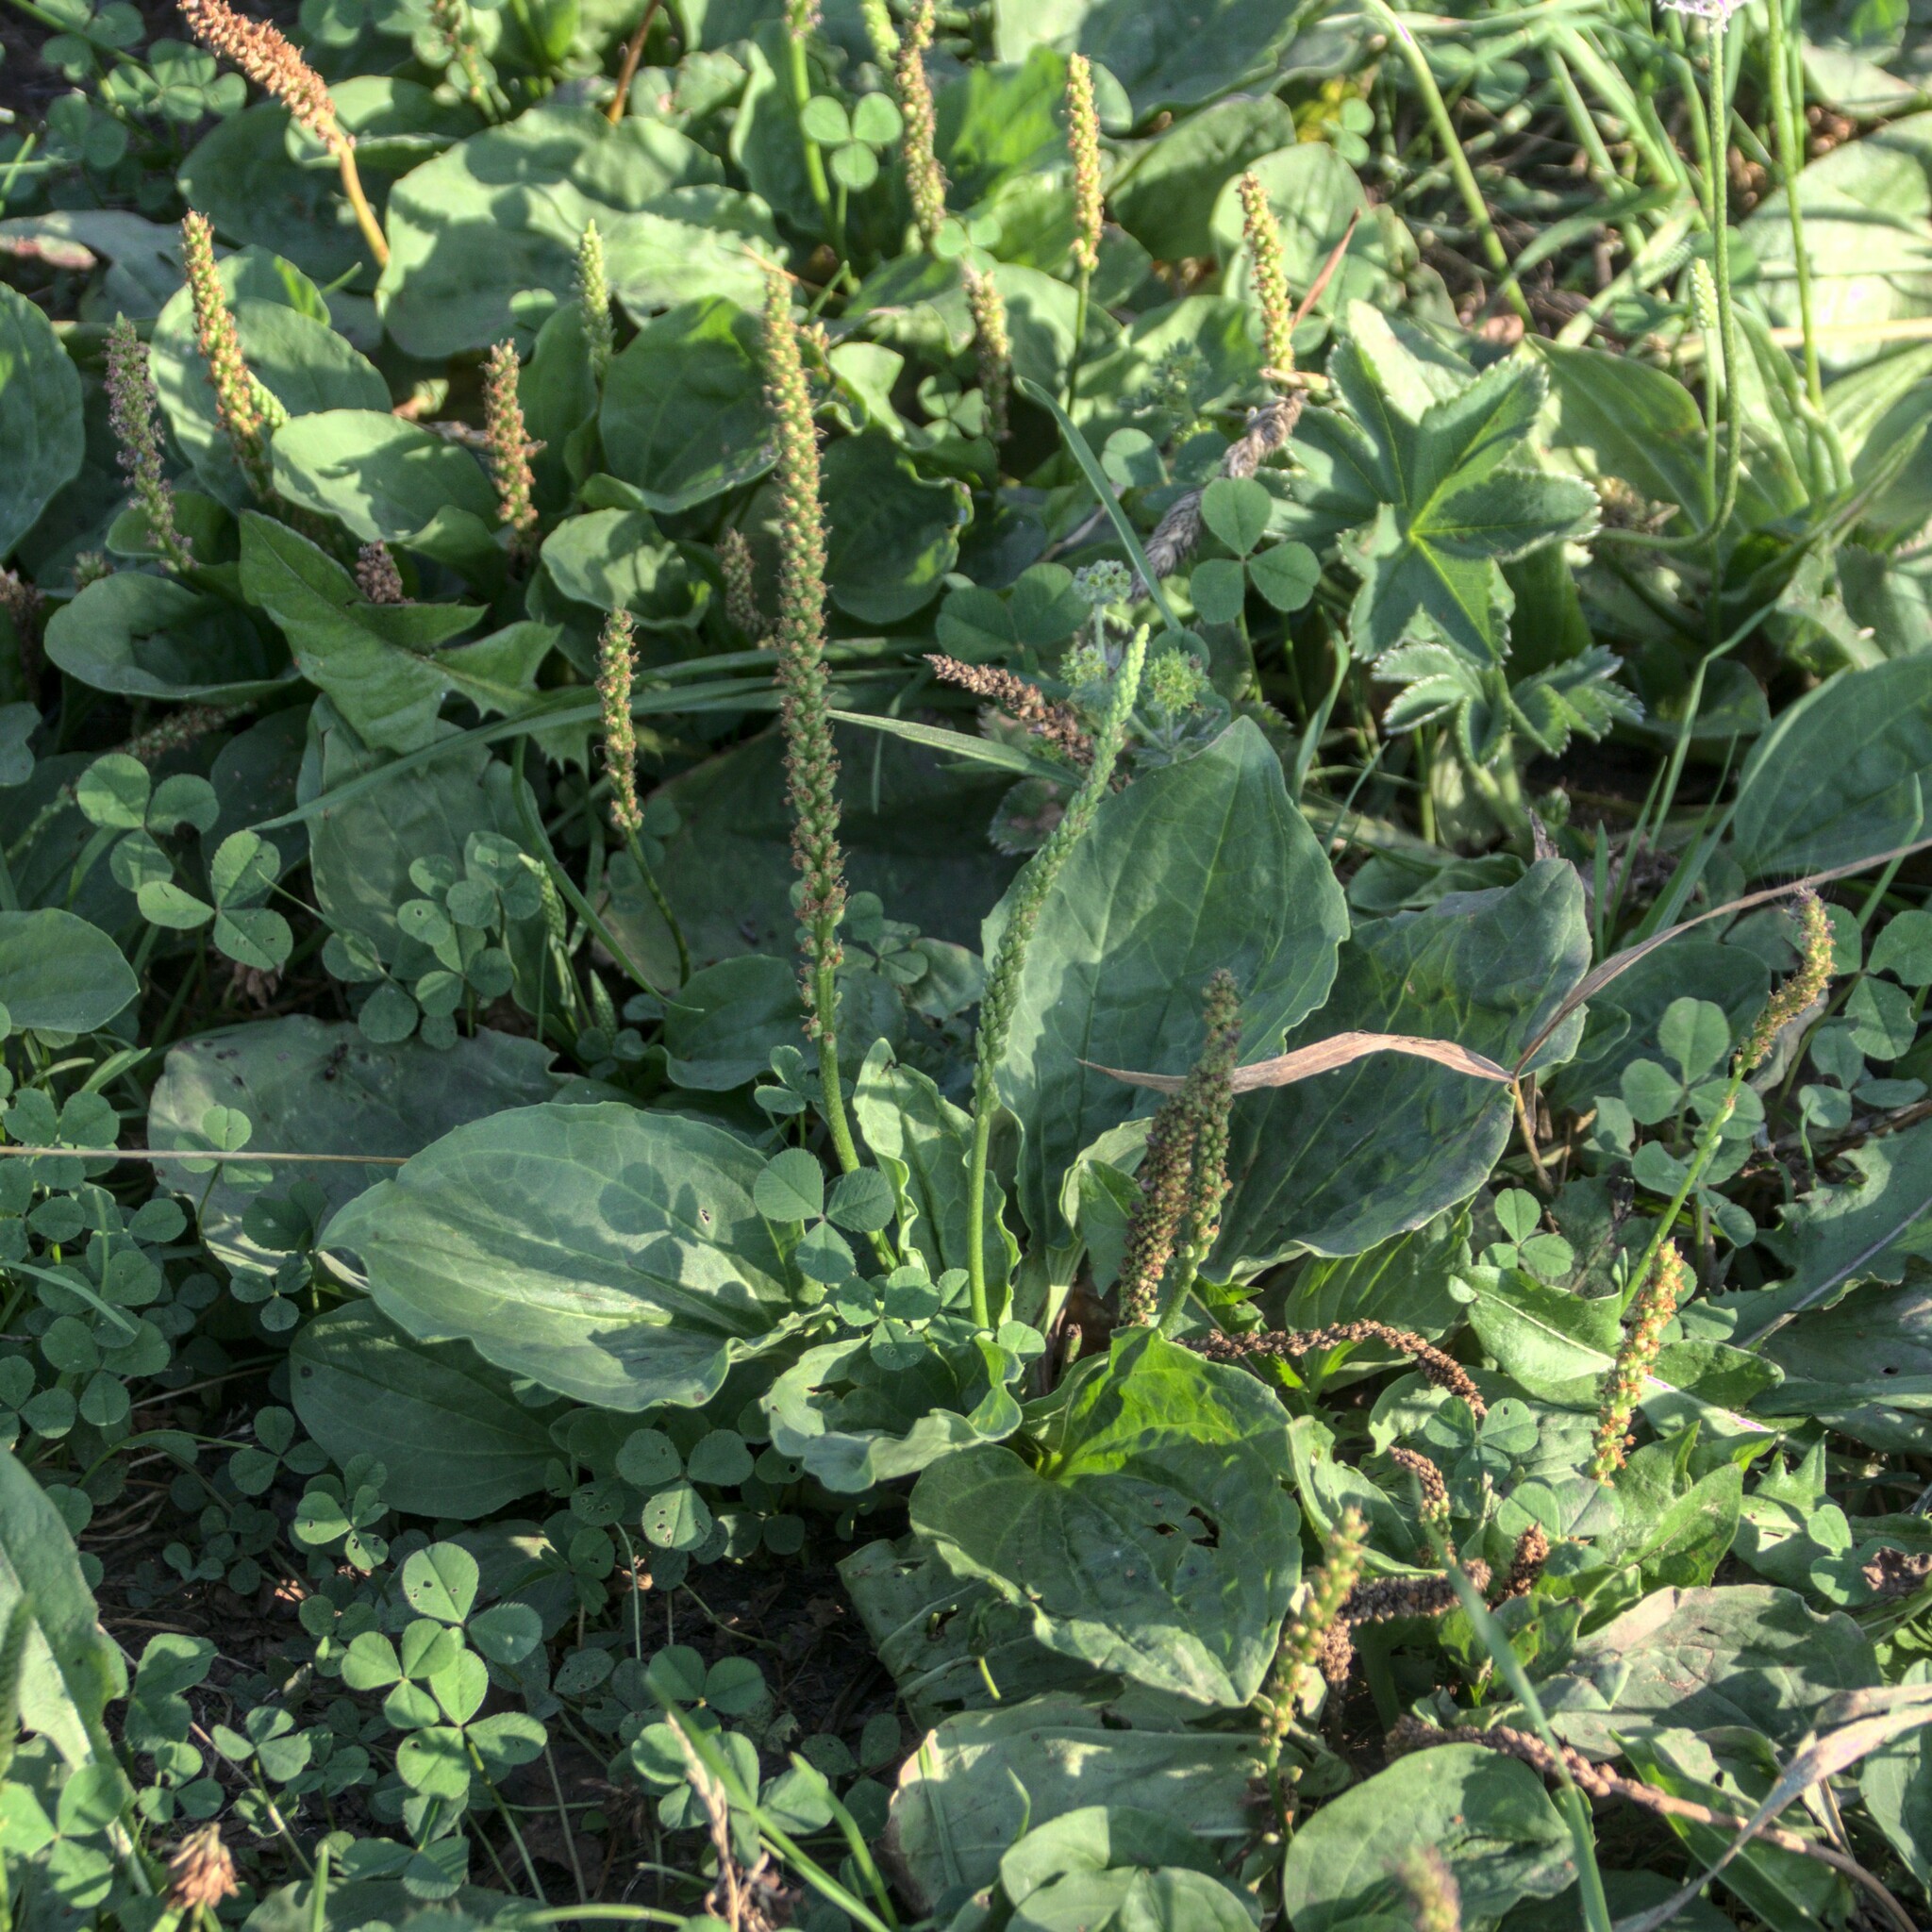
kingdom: Plantae
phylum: Tracheophyta
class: Magnoliopsida
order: Lamiales
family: Plantaginaceae
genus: Plantago
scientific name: Plantago major
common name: Common plantain
